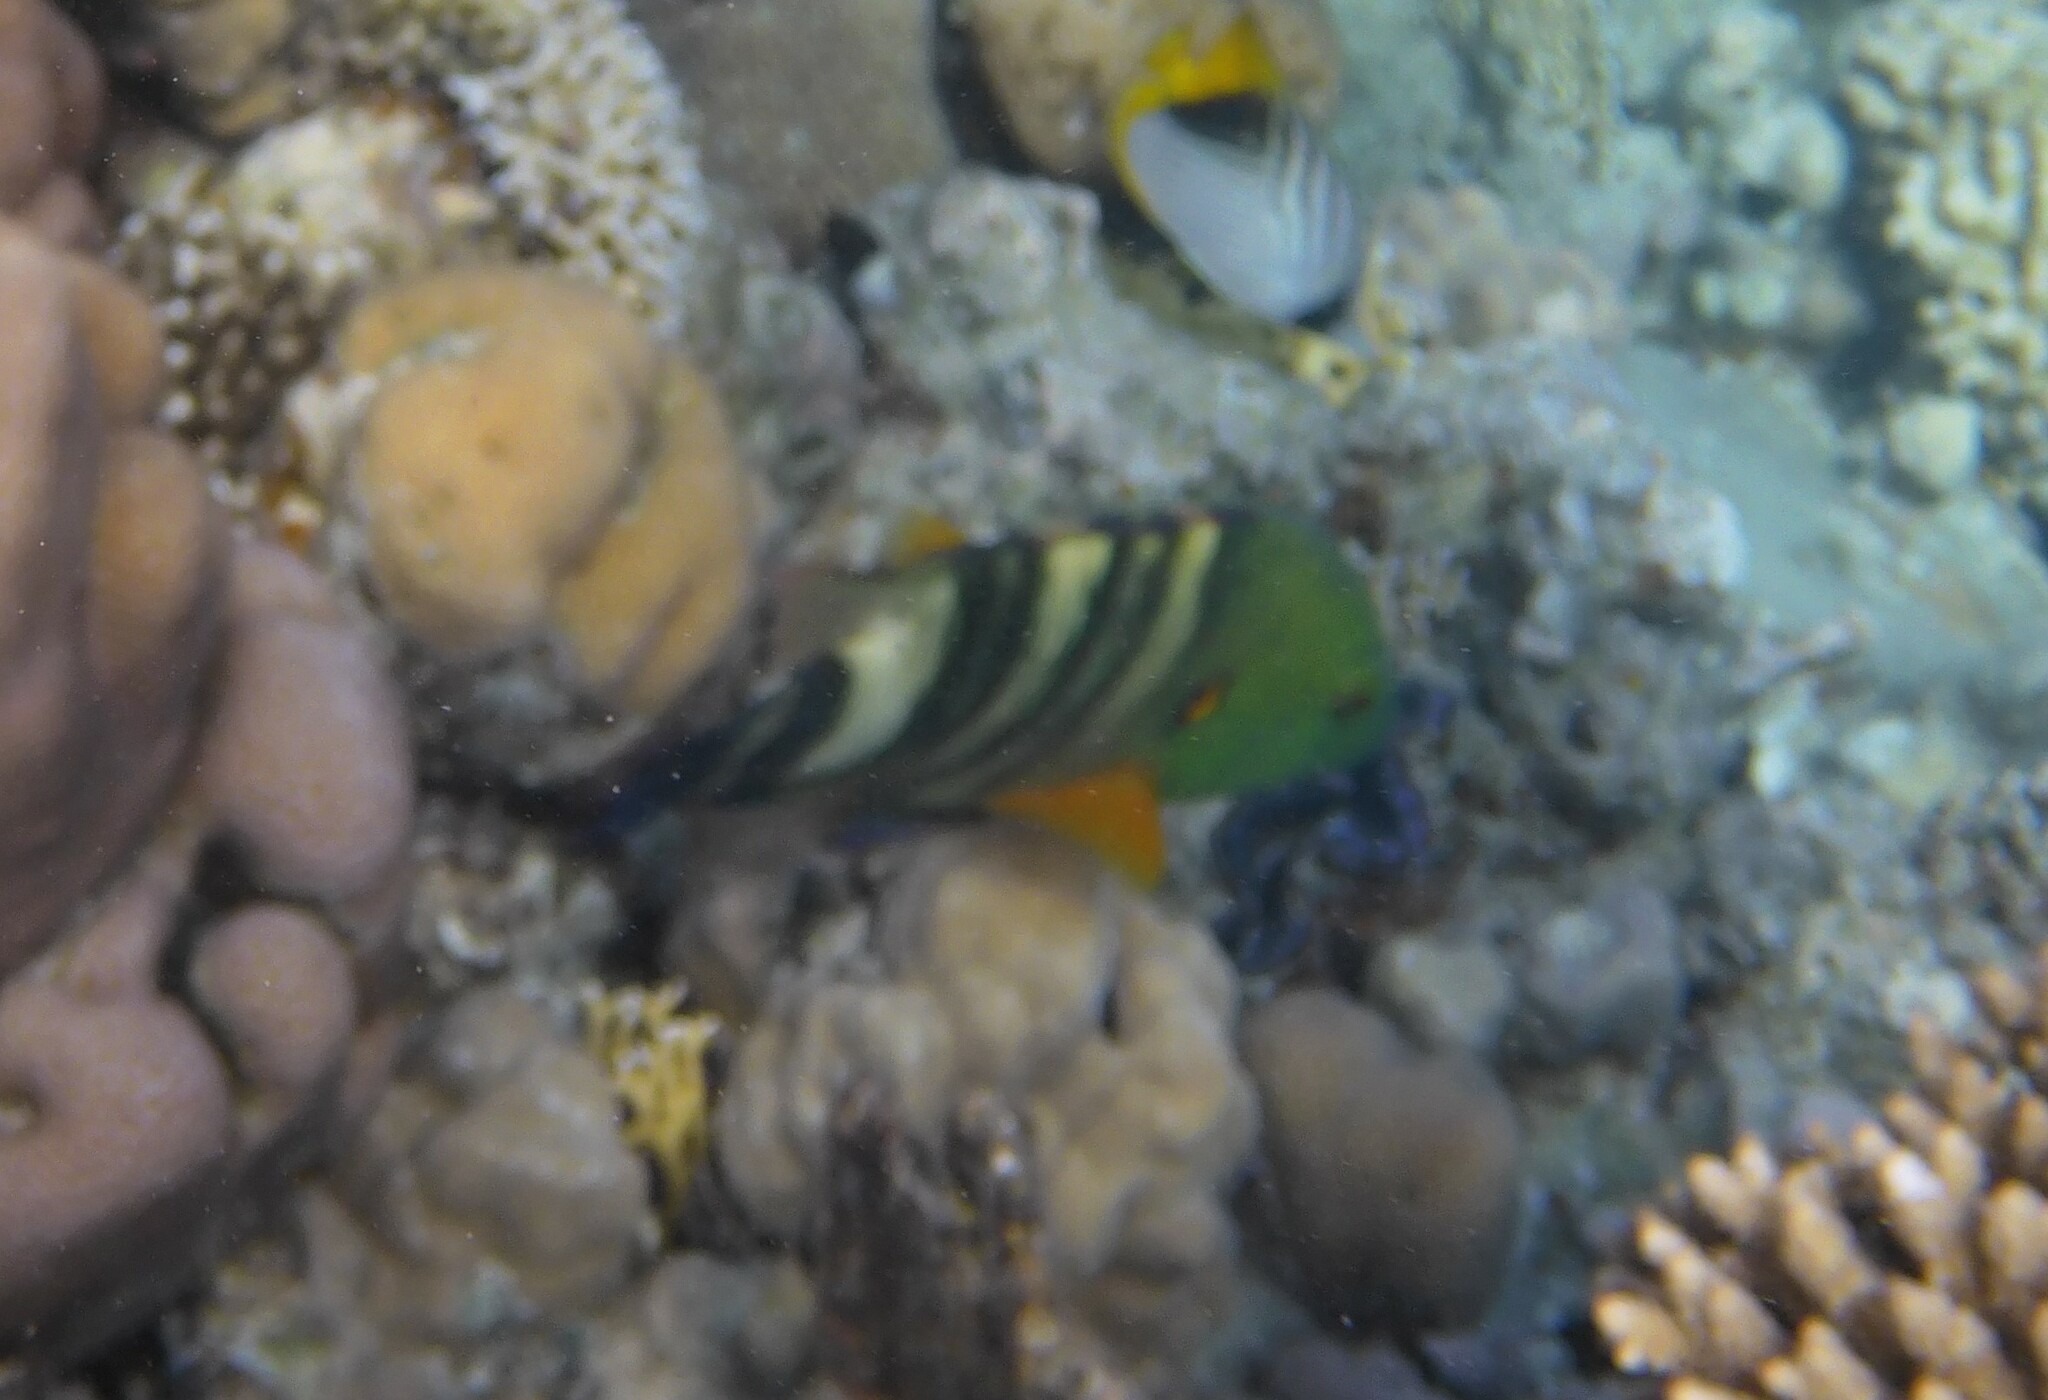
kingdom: Animalia
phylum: Chordata
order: Perciformes
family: Labridae
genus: Cheilinus
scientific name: Cheilinus lunulatus
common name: Broomtail wrasse
